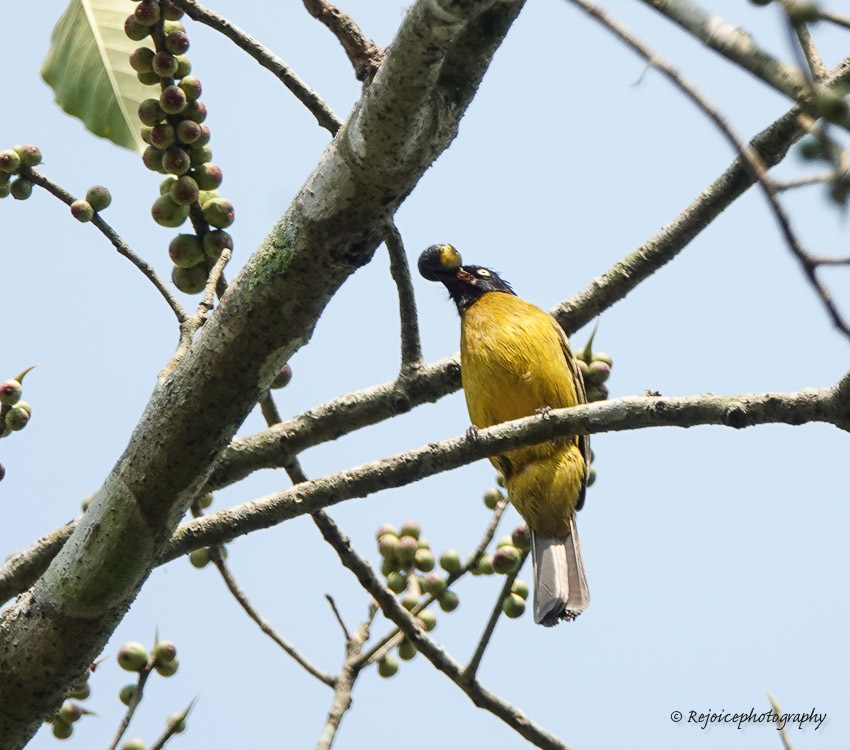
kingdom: Animalia
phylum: Chordata
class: Aves
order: Passeriformes
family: Pycnonotidae
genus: Pycnonotus
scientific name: Pycnonotus flaviventris
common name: Black-crested bulbul
